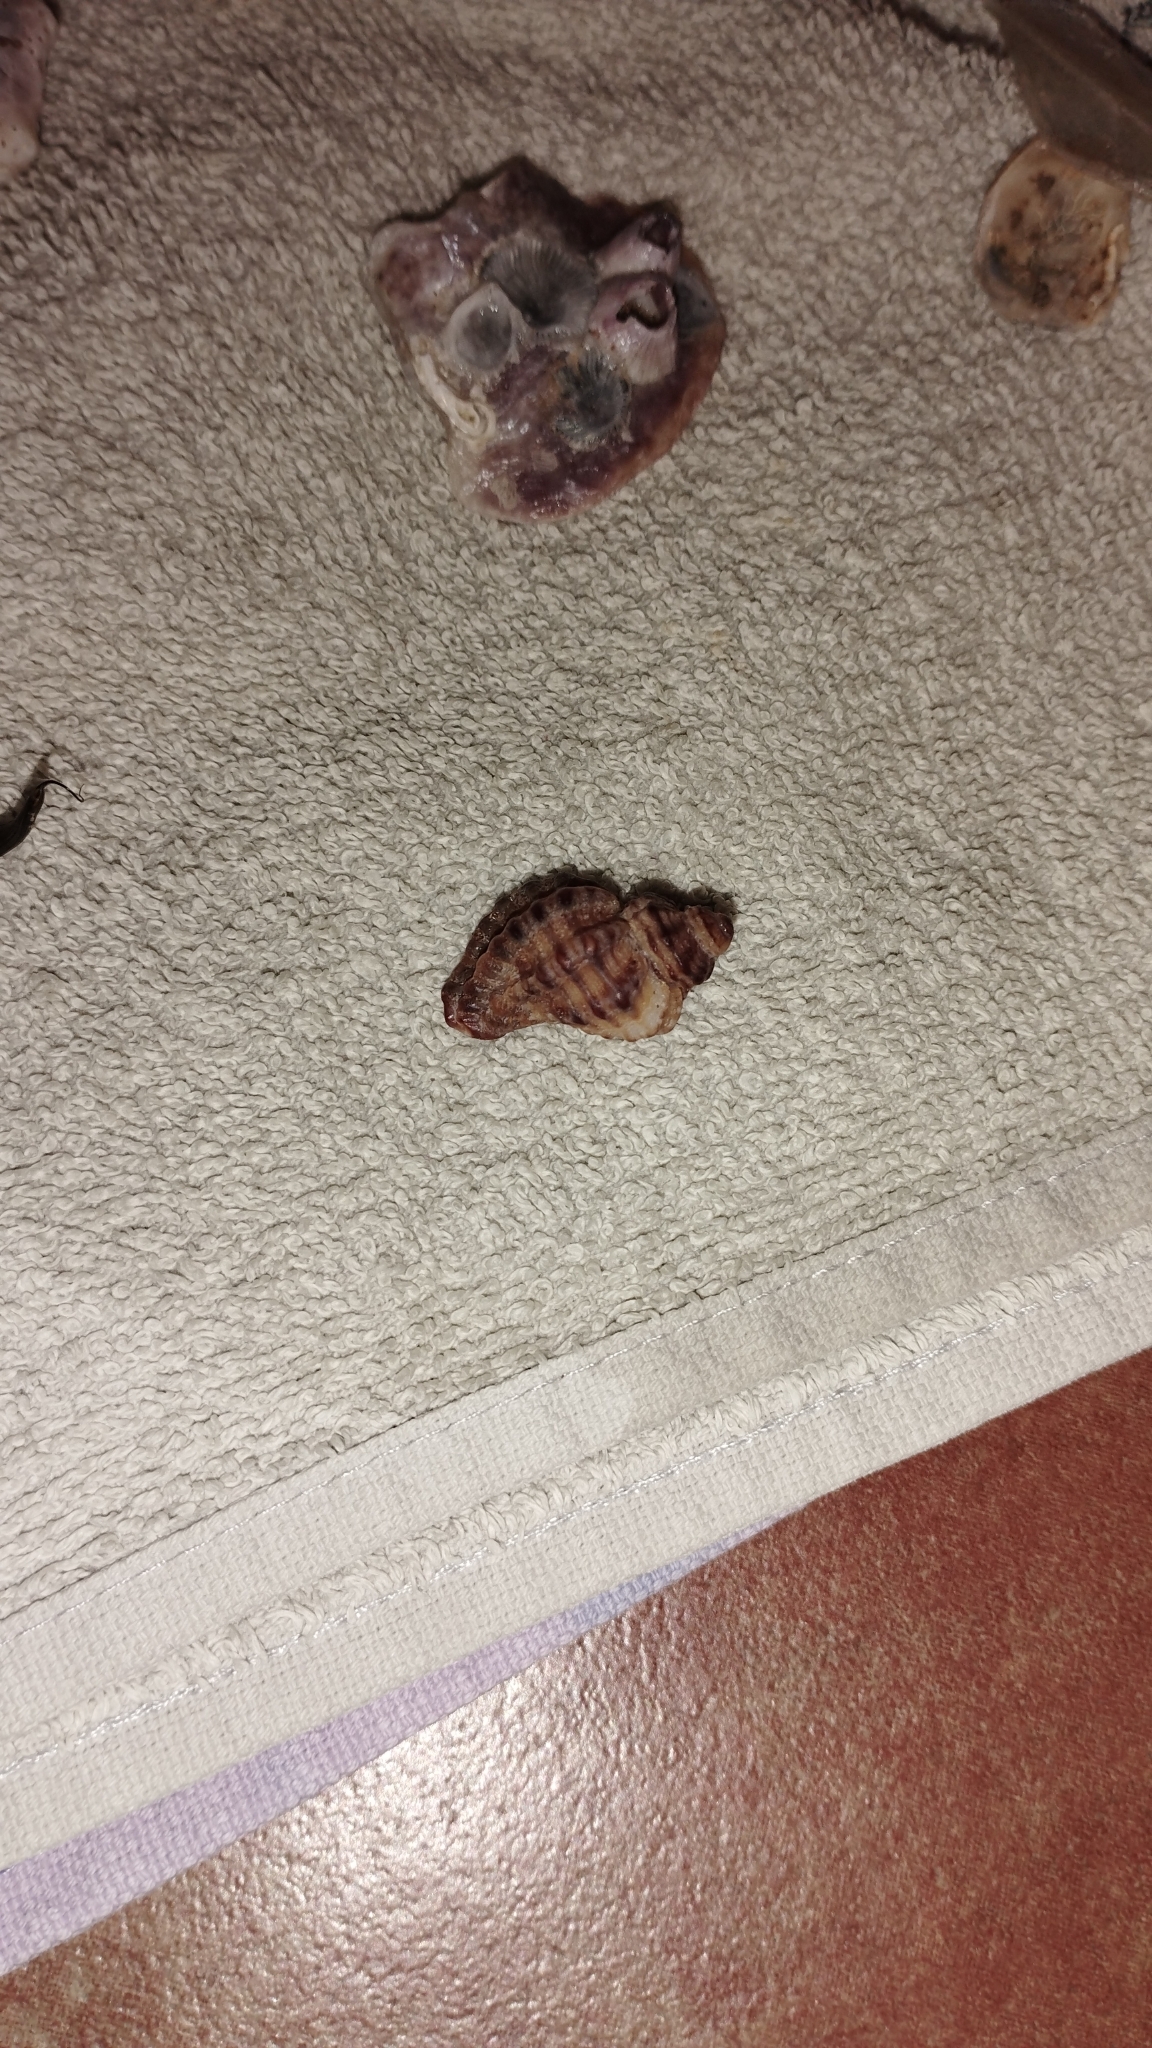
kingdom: Animalia
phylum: Mollusca
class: Gastropoda
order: Neogastropoda
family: Muricidae
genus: Ocenebra
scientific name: Ocenebra erinaceus
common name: European sting winkle
